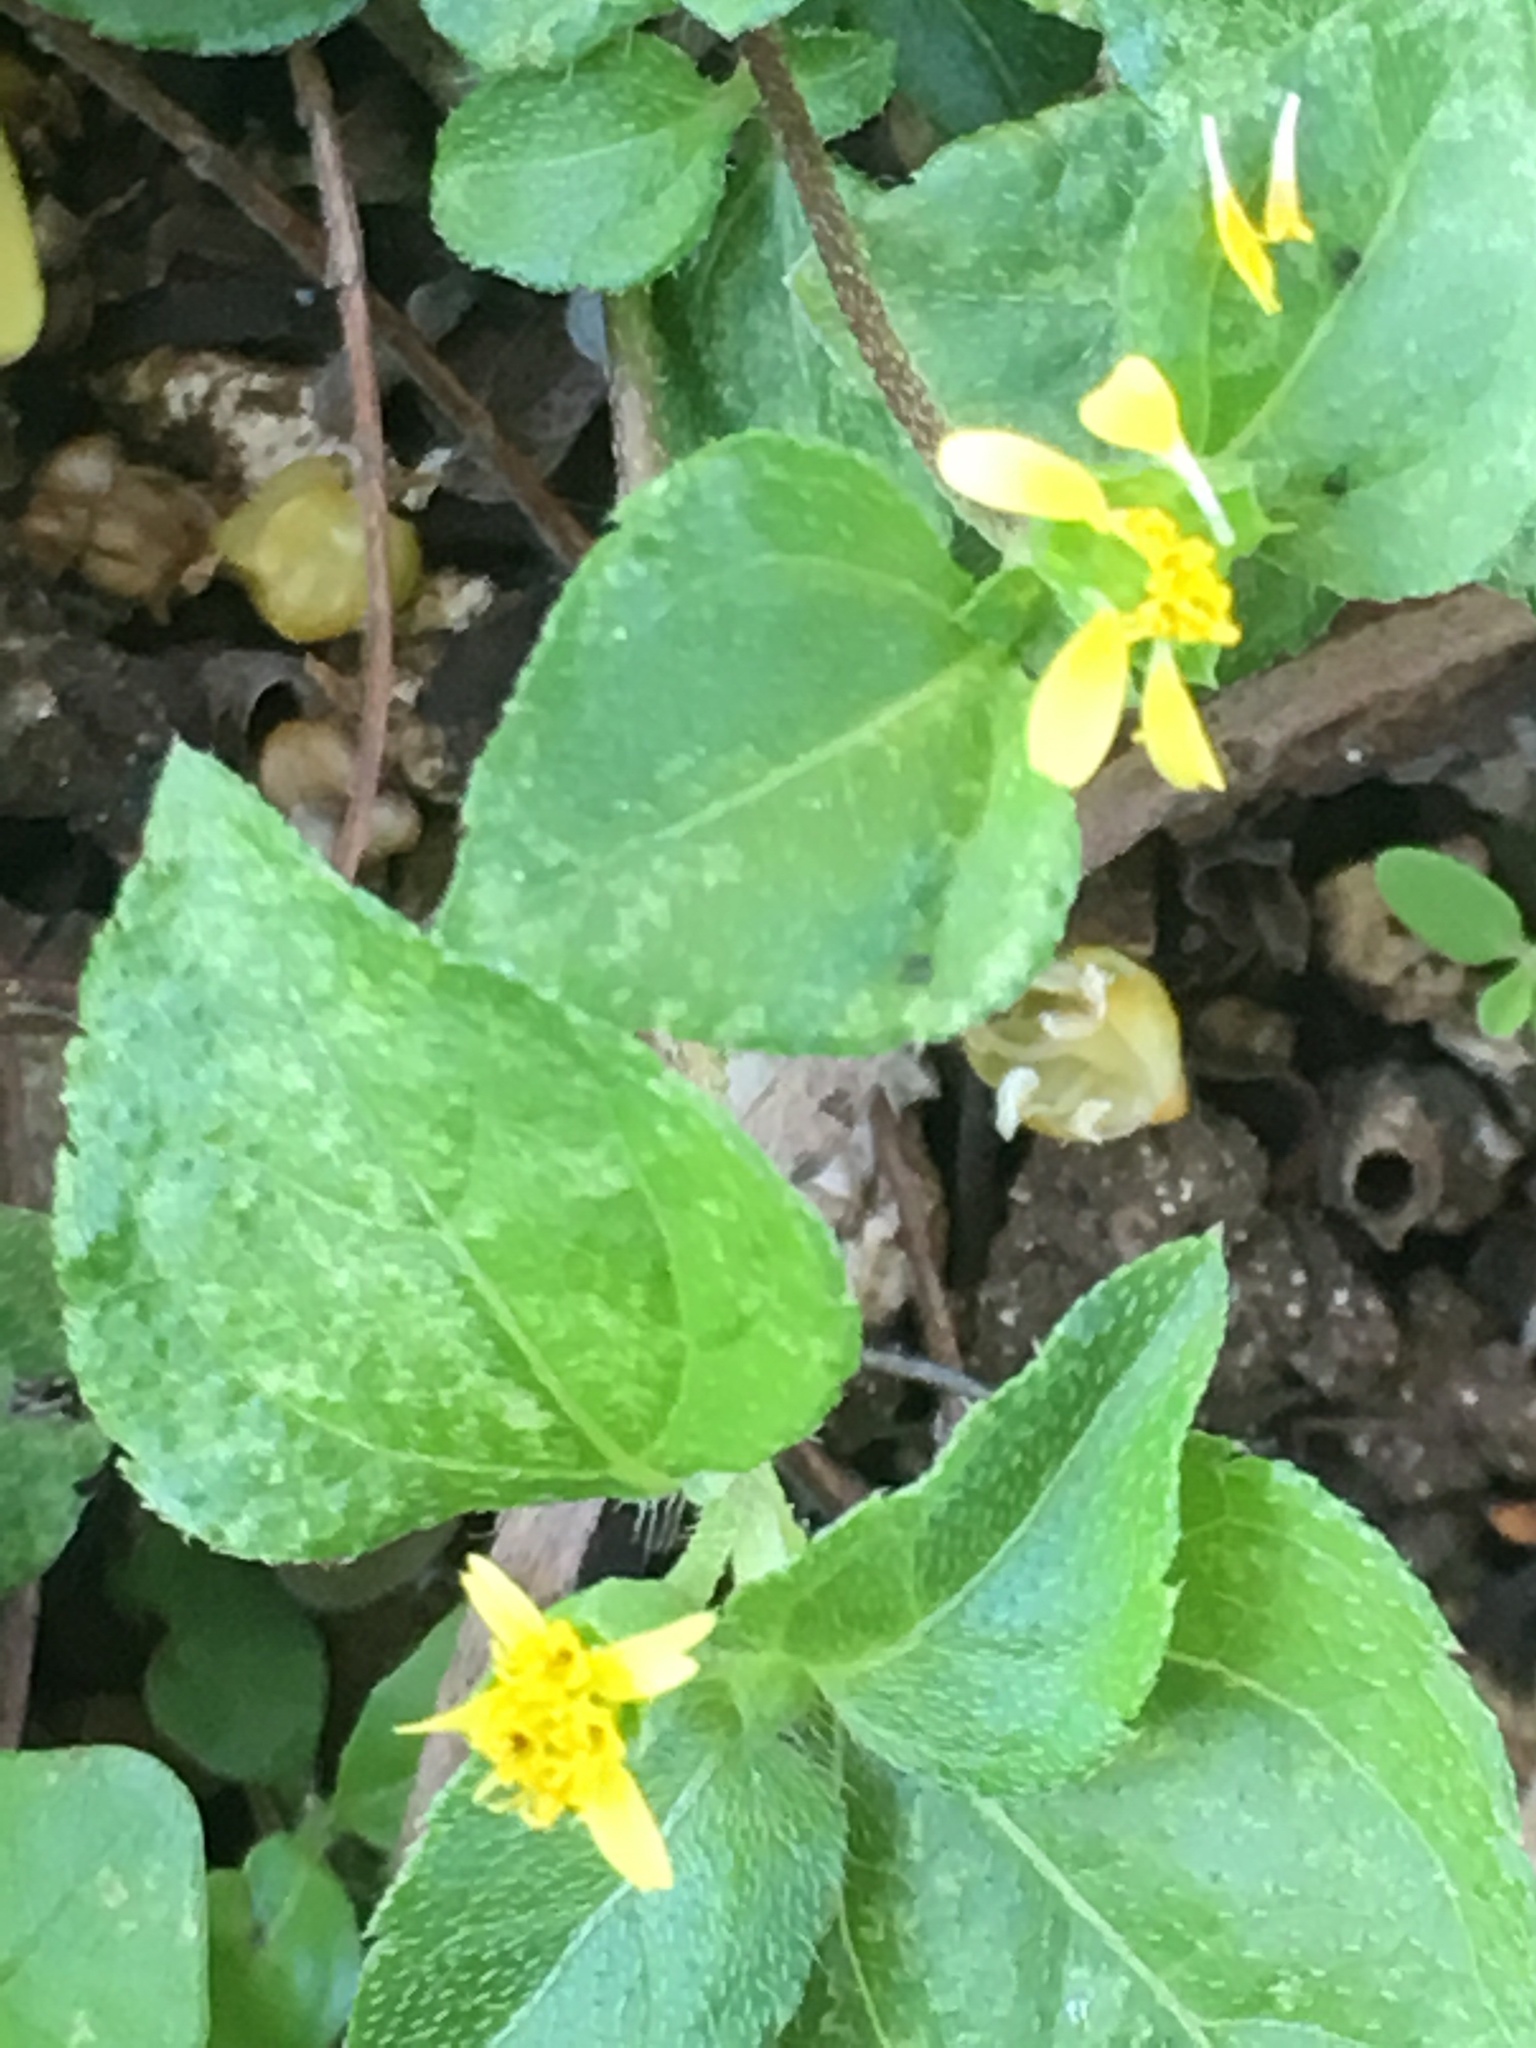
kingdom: Plantae
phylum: Tracheophyta
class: Magnoliopsida
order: Asterales
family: Asteraceae
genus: Calyptocarpus
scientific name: Calyptocarpus vialis
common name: Straggler daisy
